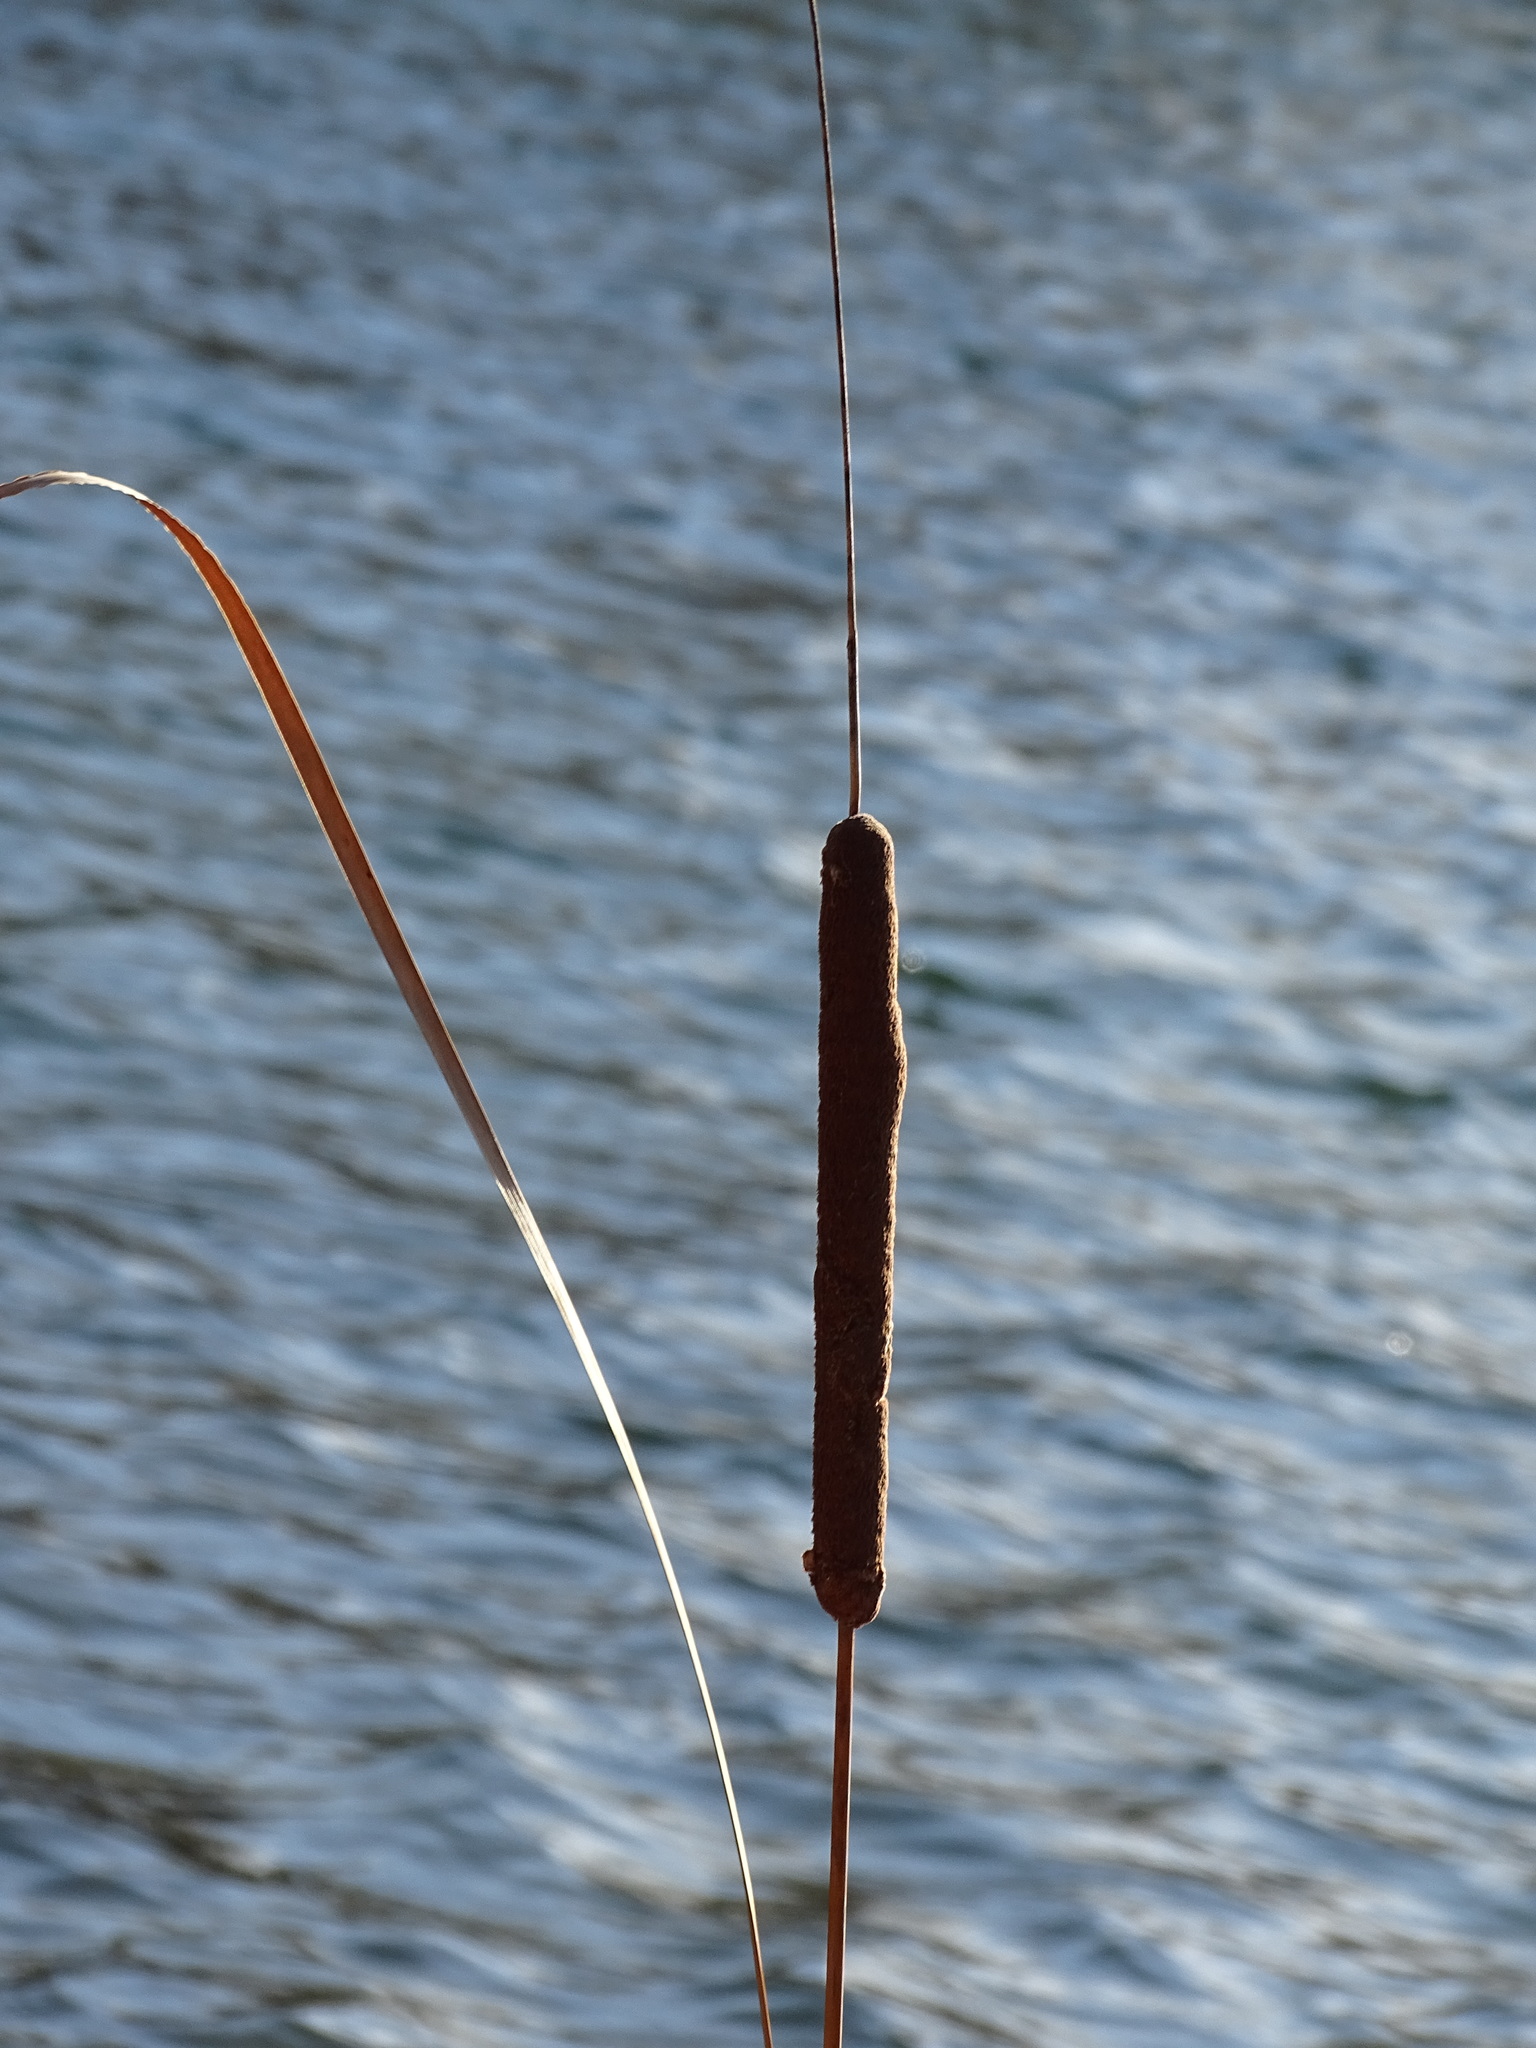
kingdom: Plantae
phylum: Tracheophyta
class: Liliopsida
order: Poales
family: Typhaceae
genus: Typha
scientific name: Typha angustifolia
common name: Lesser bulrush
